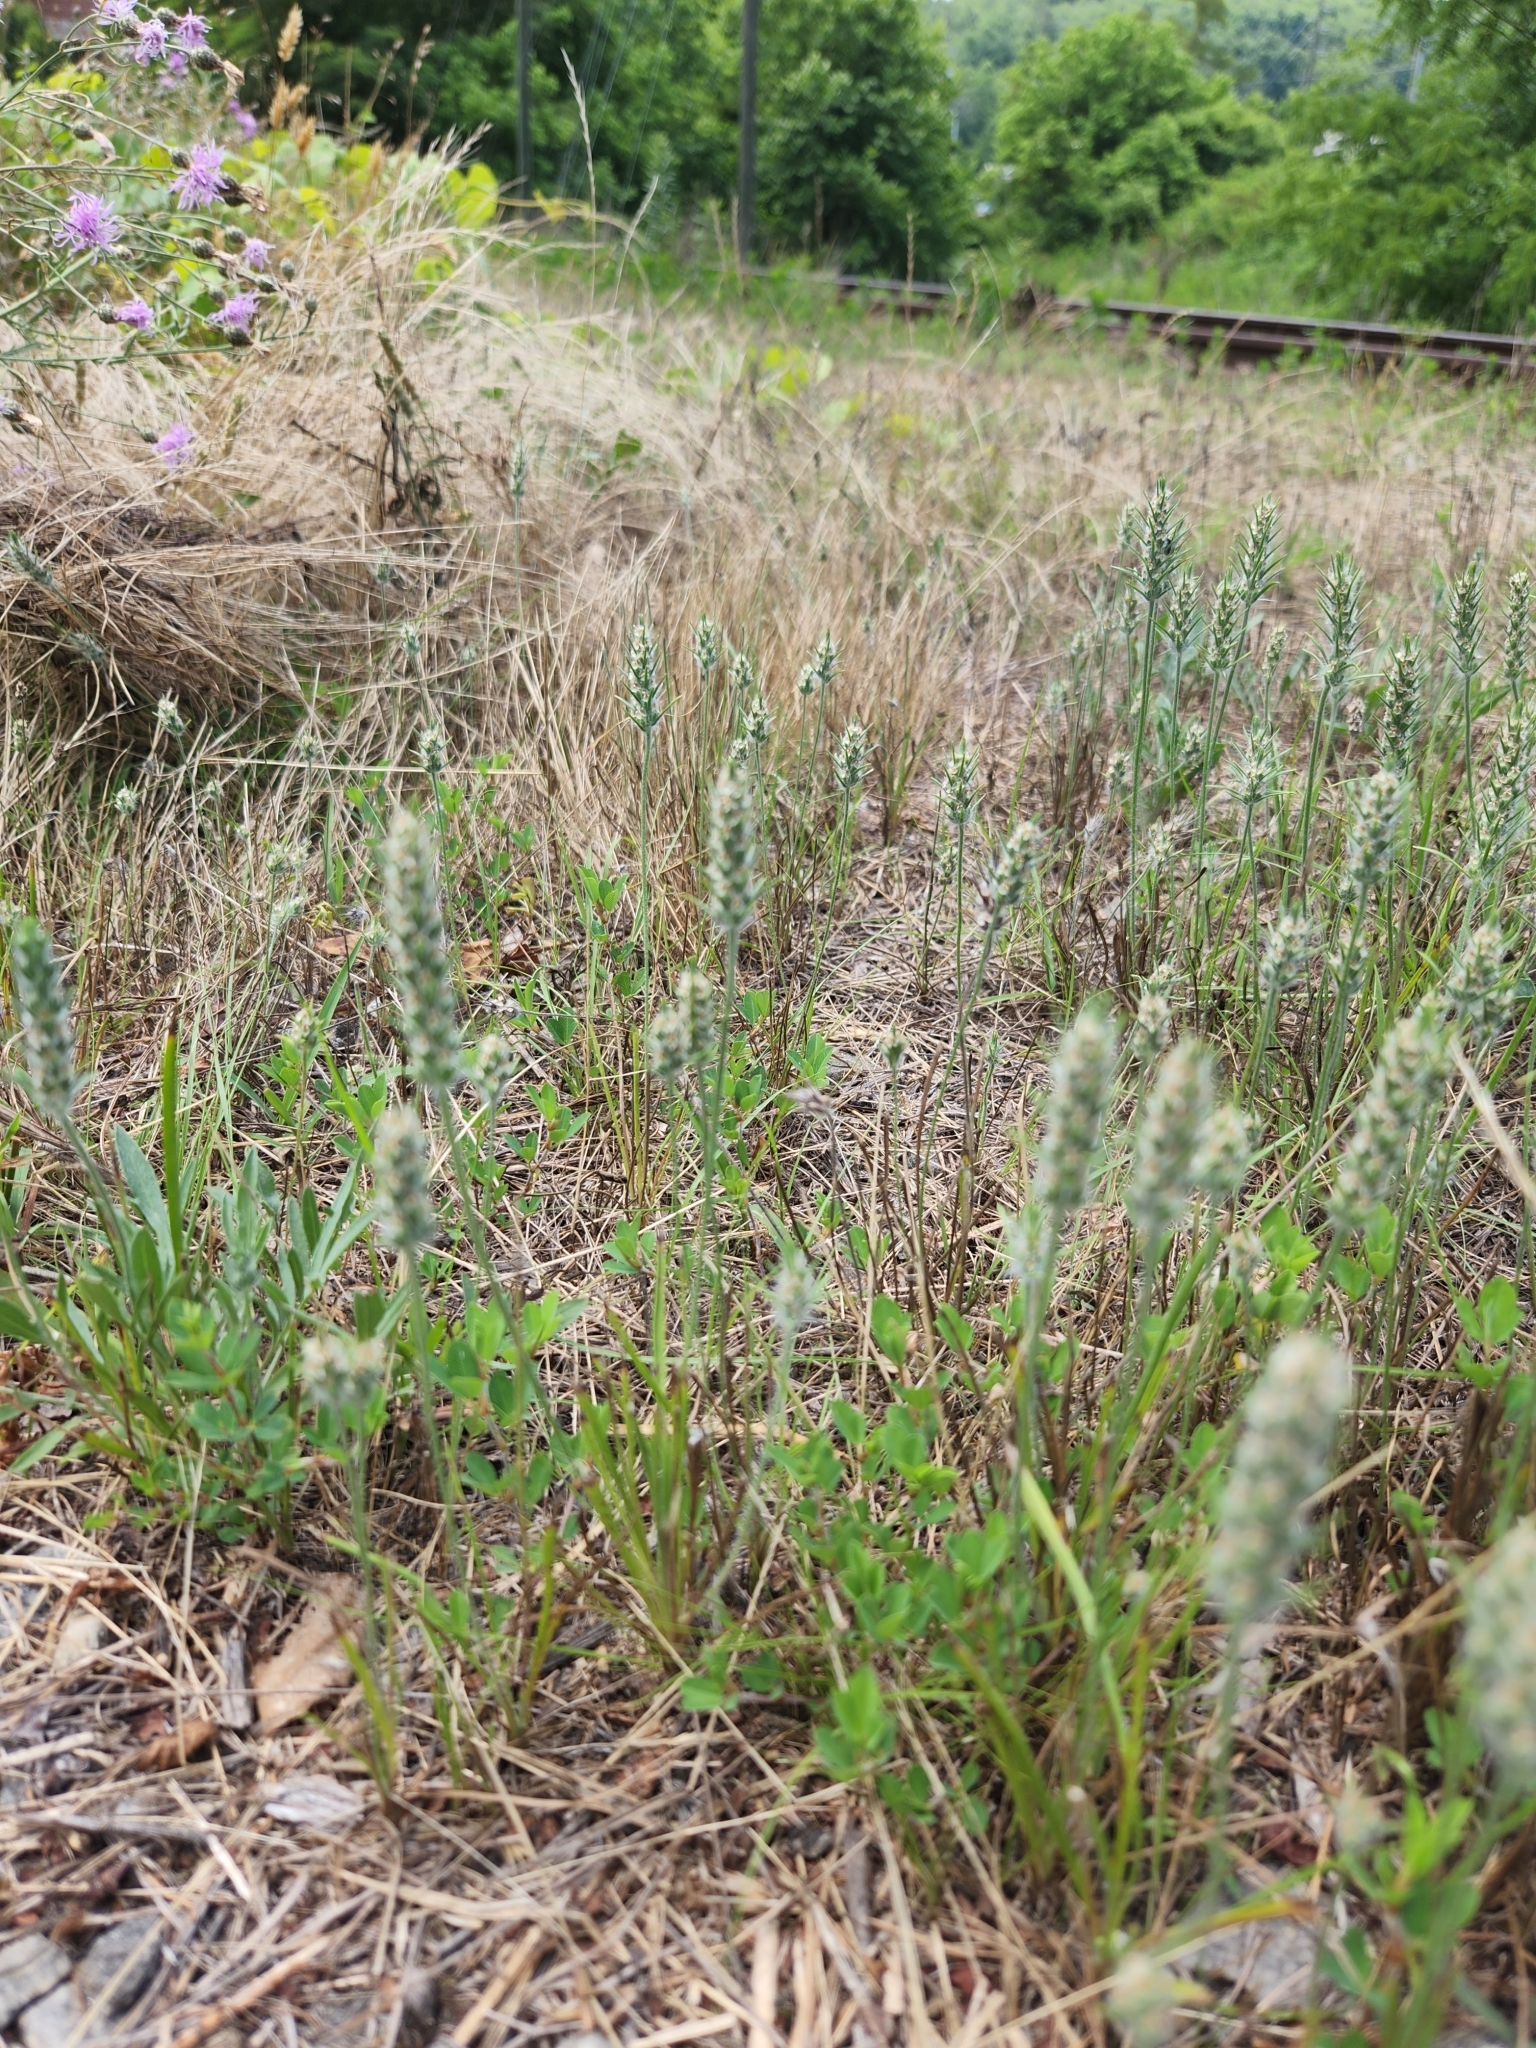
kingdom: Plantae
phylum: Tracheophyta
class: Magnoliopsida
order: Lamiales
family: Plantaginaceae
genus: Plantago
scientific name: Plantago aristata
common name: Bracted plantain
